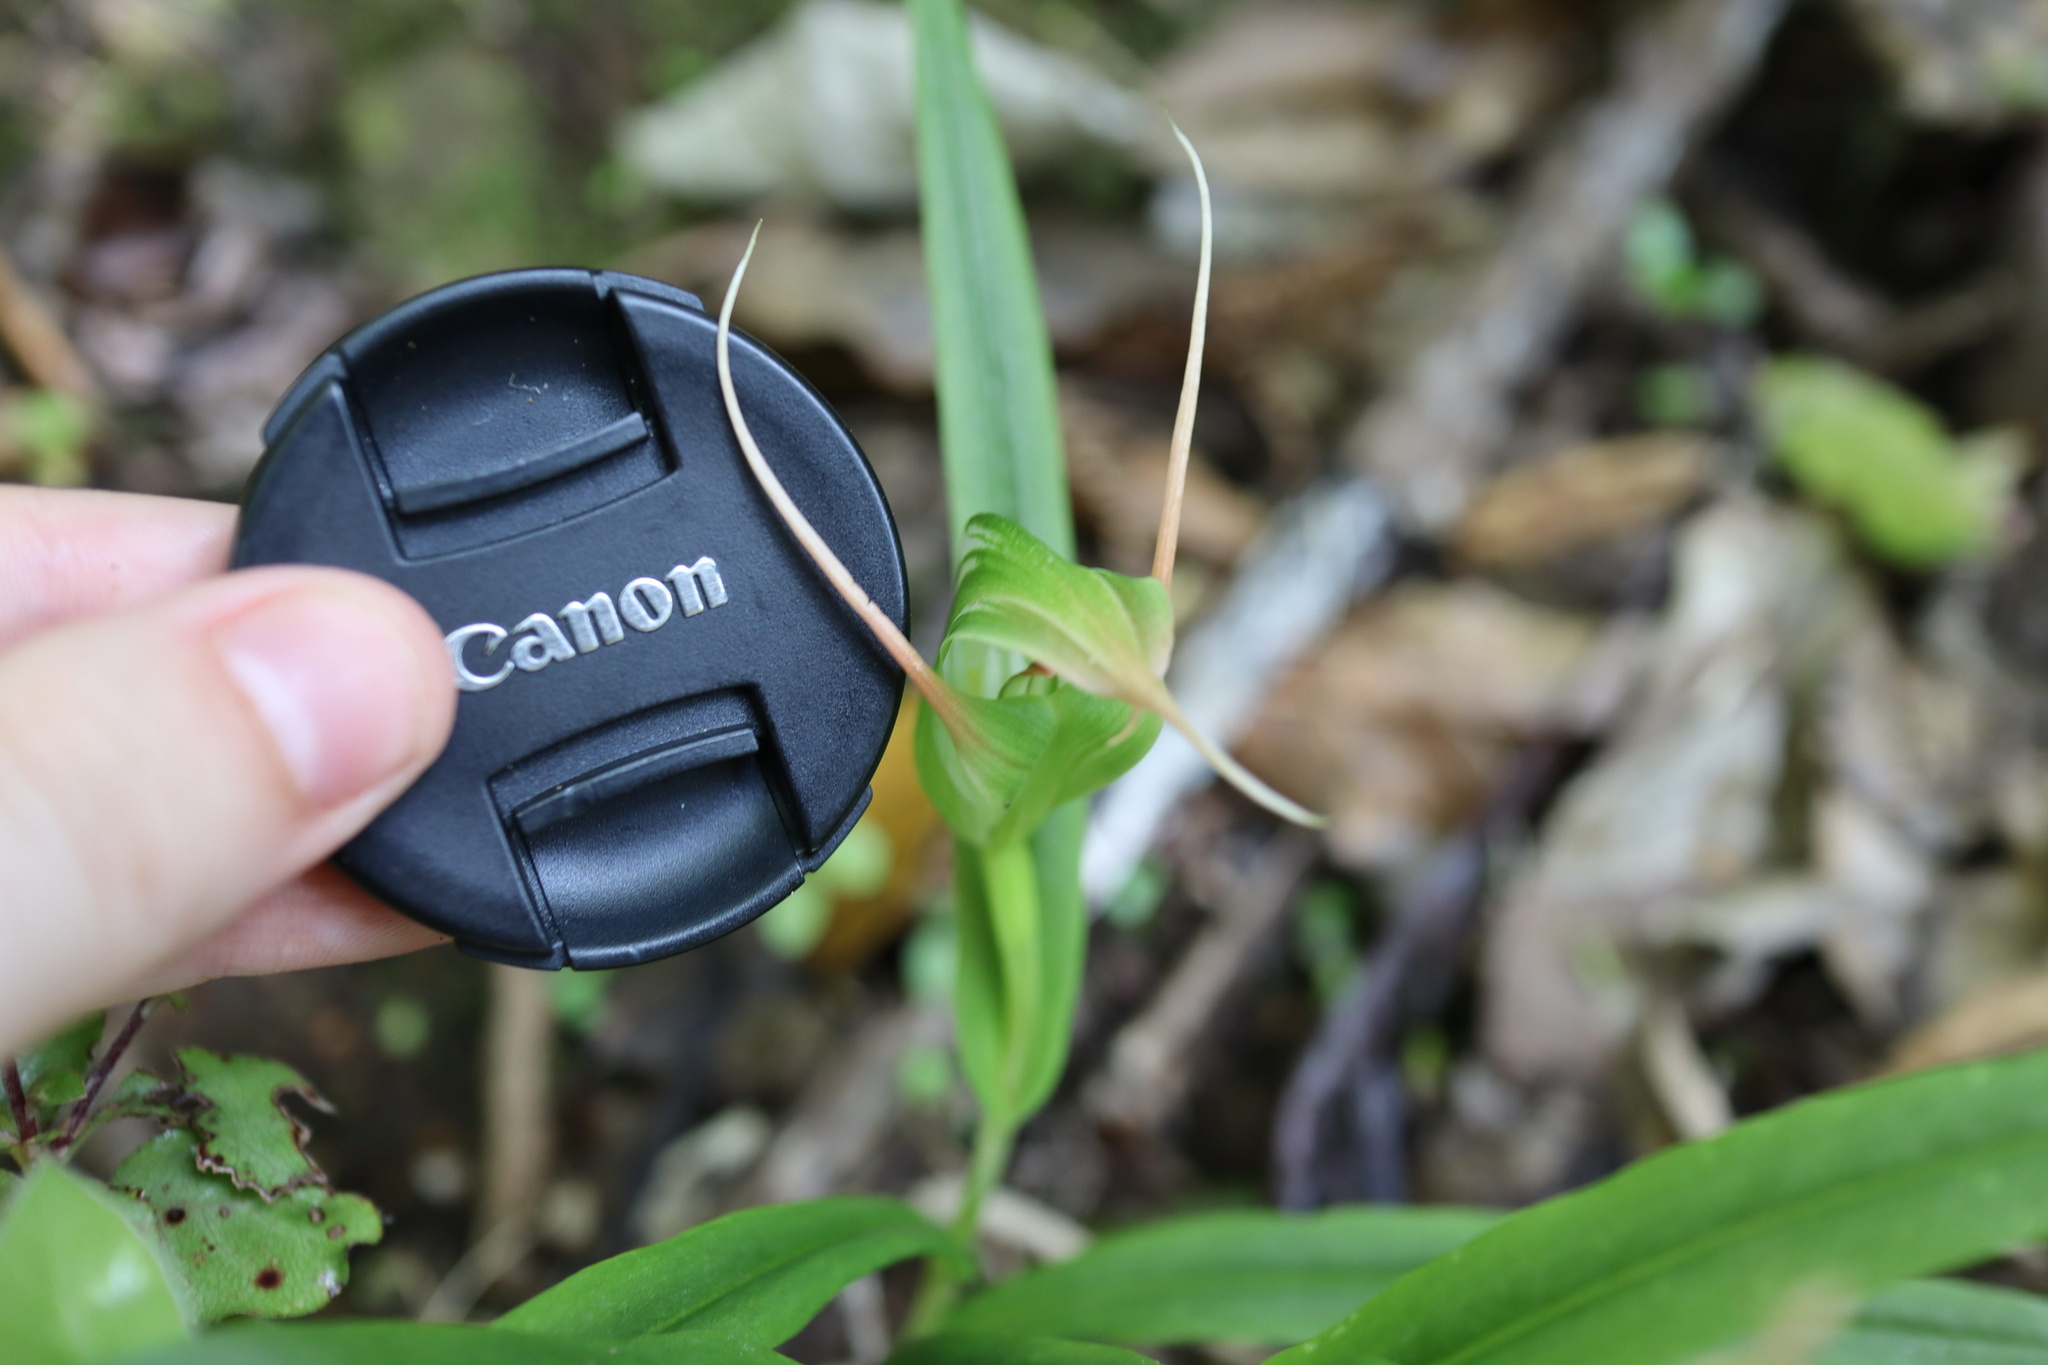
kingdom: Plantae
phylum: Tracheophyta
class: Liliopsida
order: Asparagales
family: Orchidaceae
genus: Pterostylis
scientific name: Pterostylis banksii
